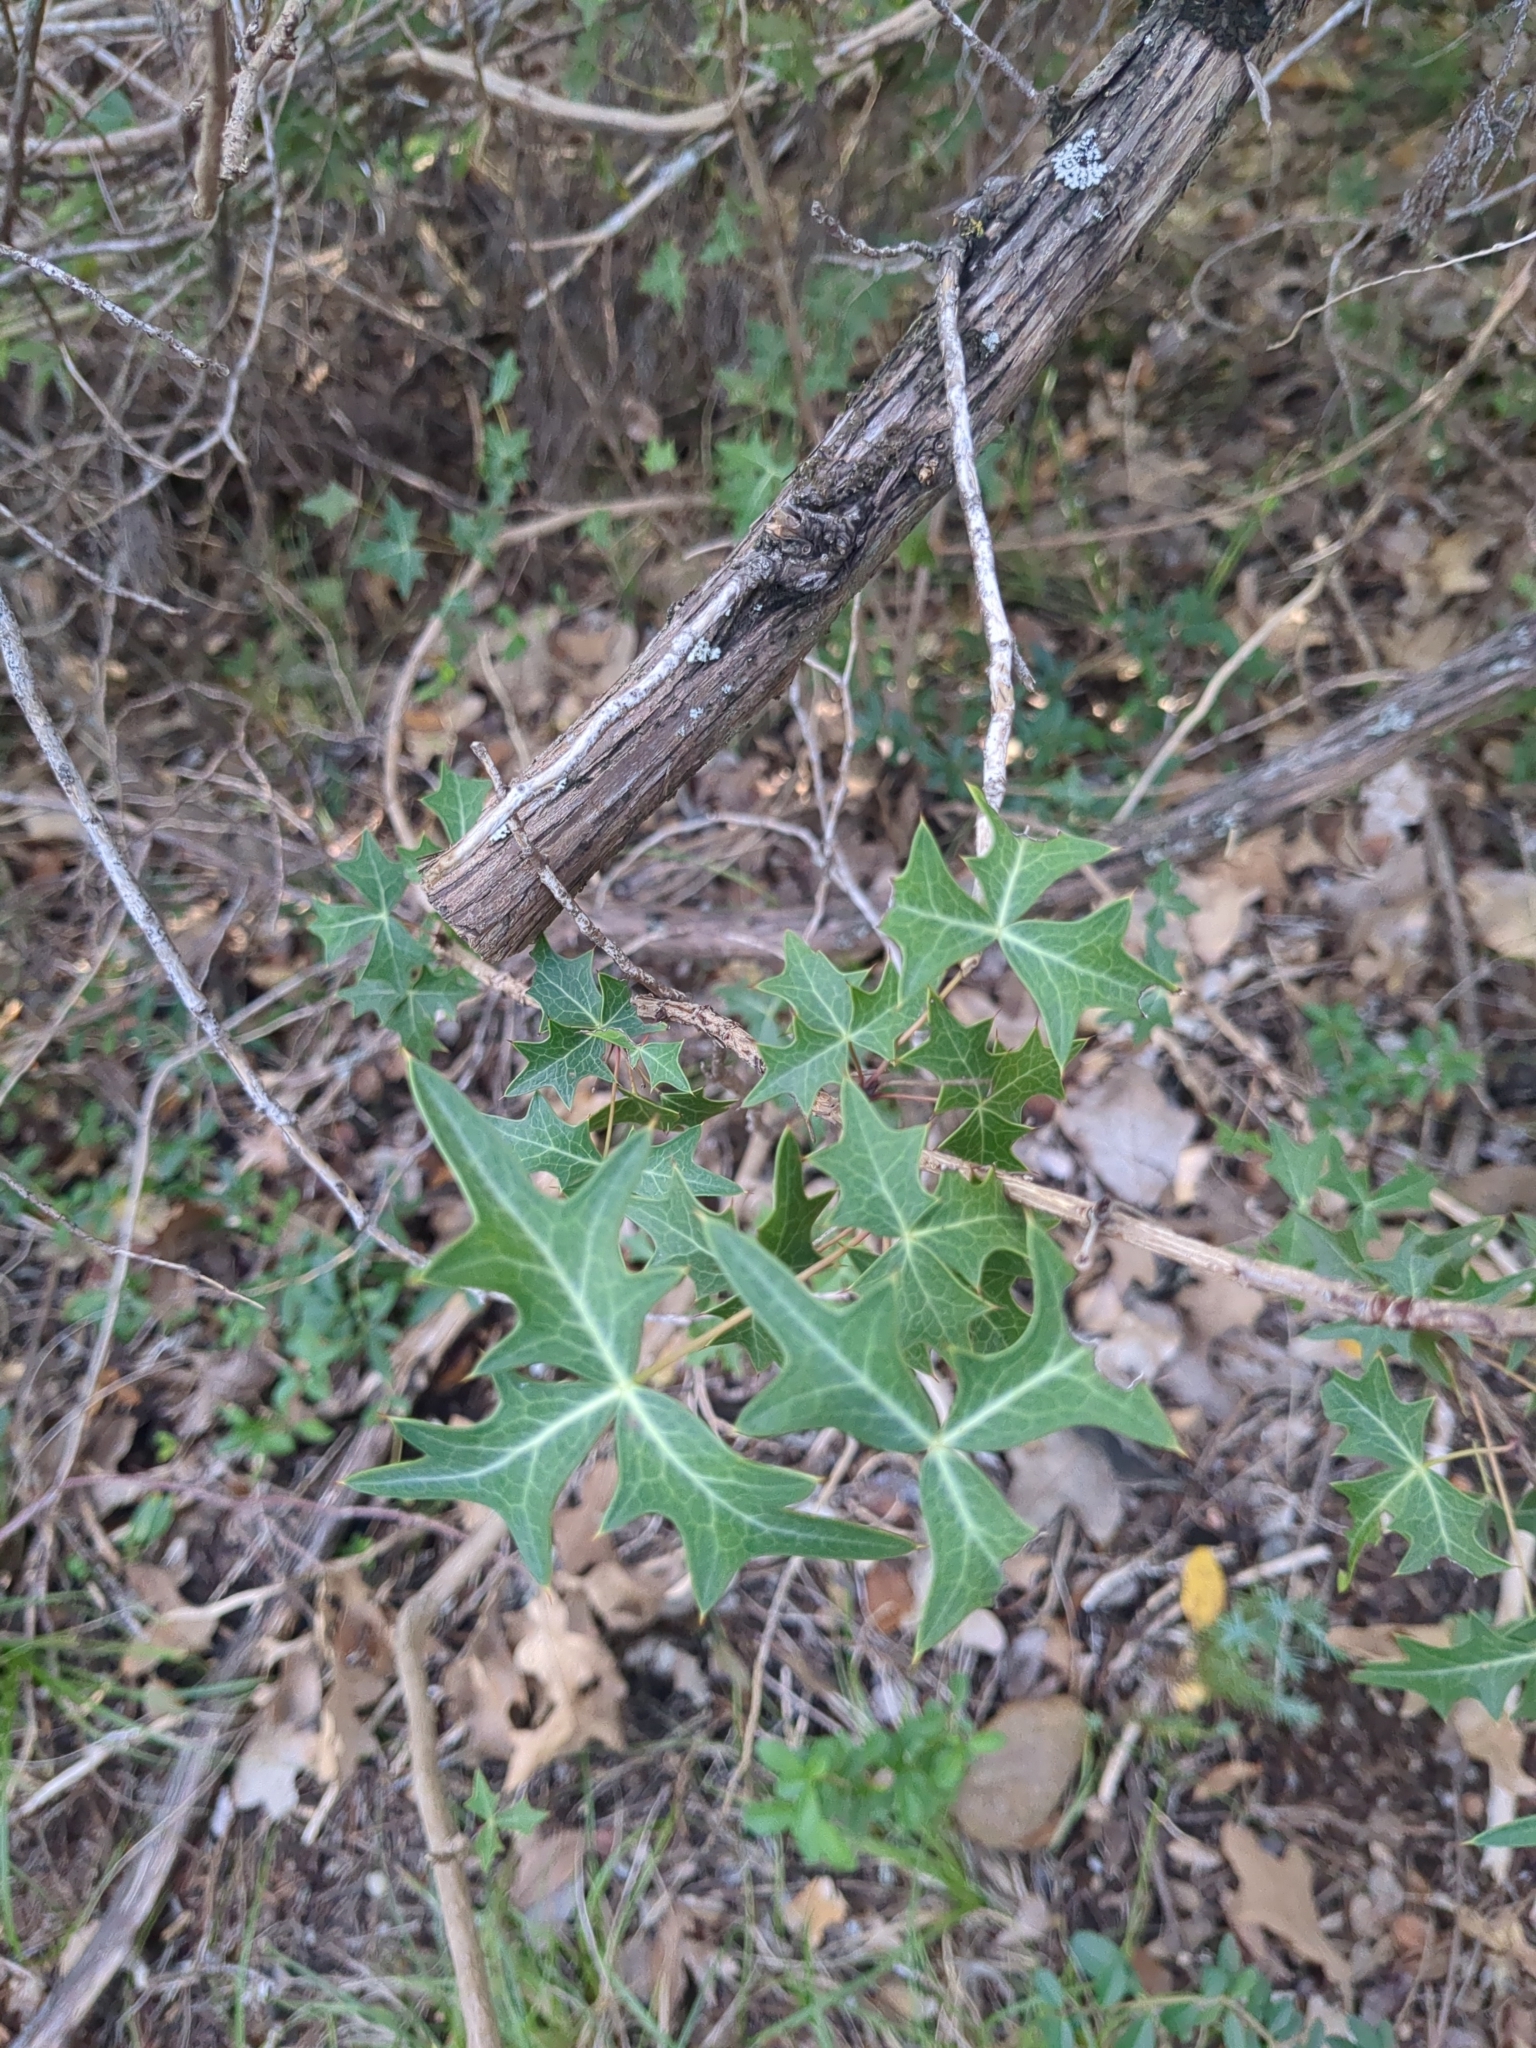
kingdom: Plantae
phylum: Tracheophyta
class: Magnoliopsida
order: Ranunculales
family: Berberidaceae
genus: Alloberberis
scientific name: Alloberberis trifoliolata
